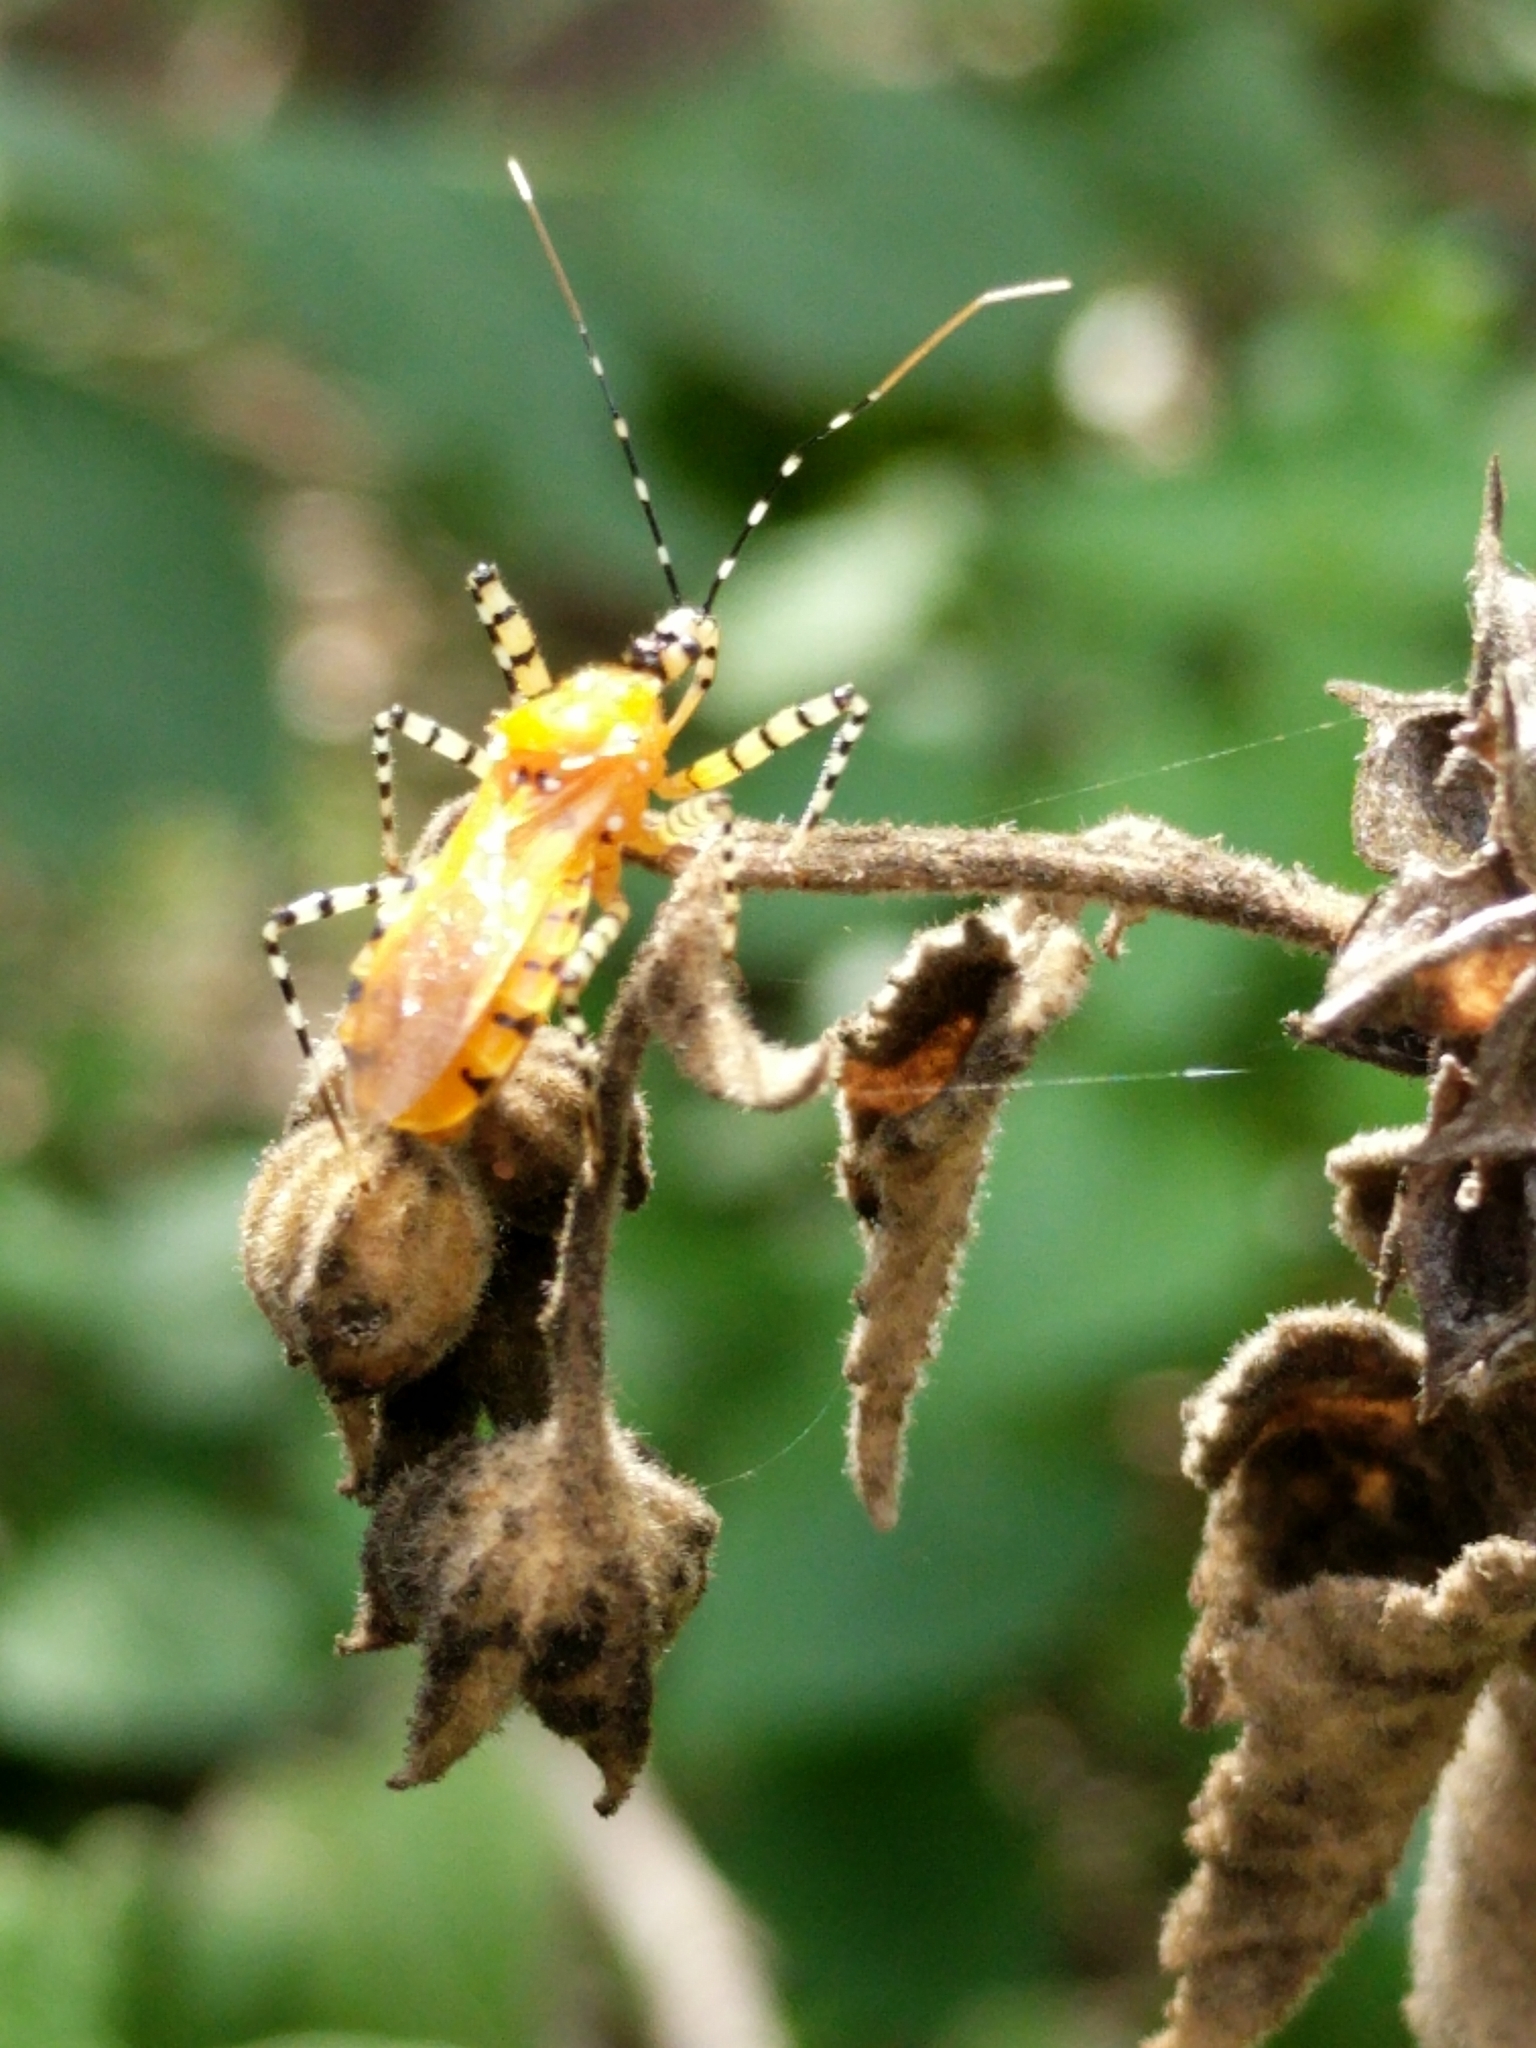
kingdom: Animalia
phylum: Arthropoda
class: Insecta
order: Hemiptera
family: Reduviidae
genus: Pselliopus
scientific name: Pselliopus barberi
